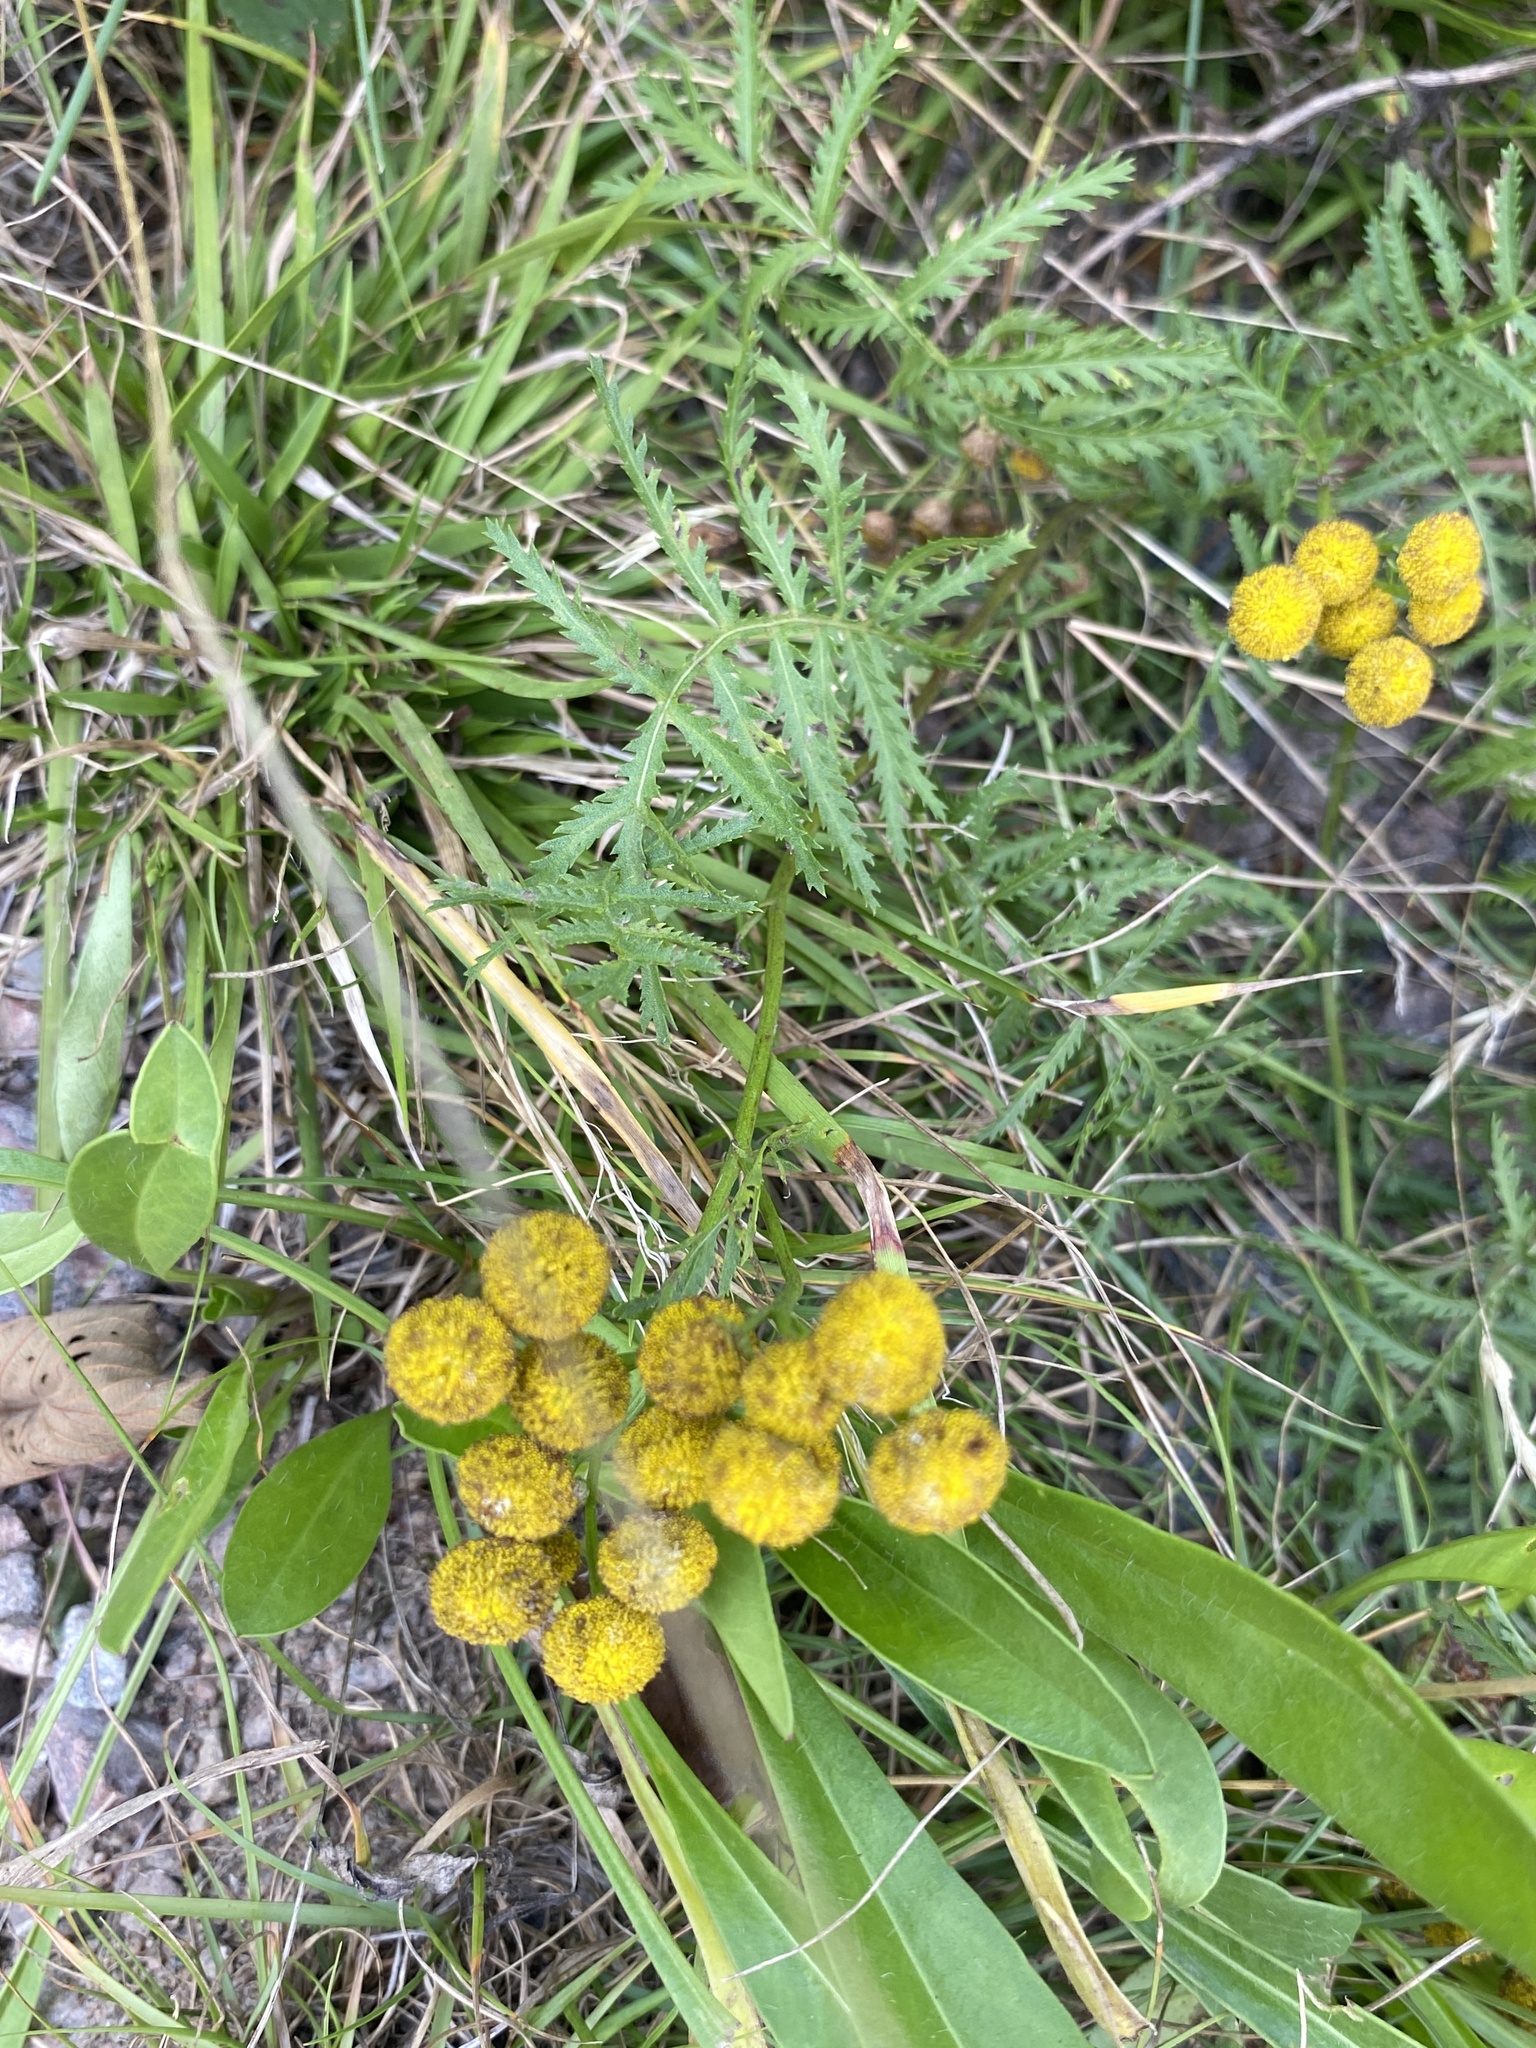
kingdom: Plantae
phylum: Tracheophyta
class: Magnoliopsida
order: Asterales
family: Asteraceae
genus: Tanacetum
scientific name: Tanacetum vulgare
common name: Common tansy
